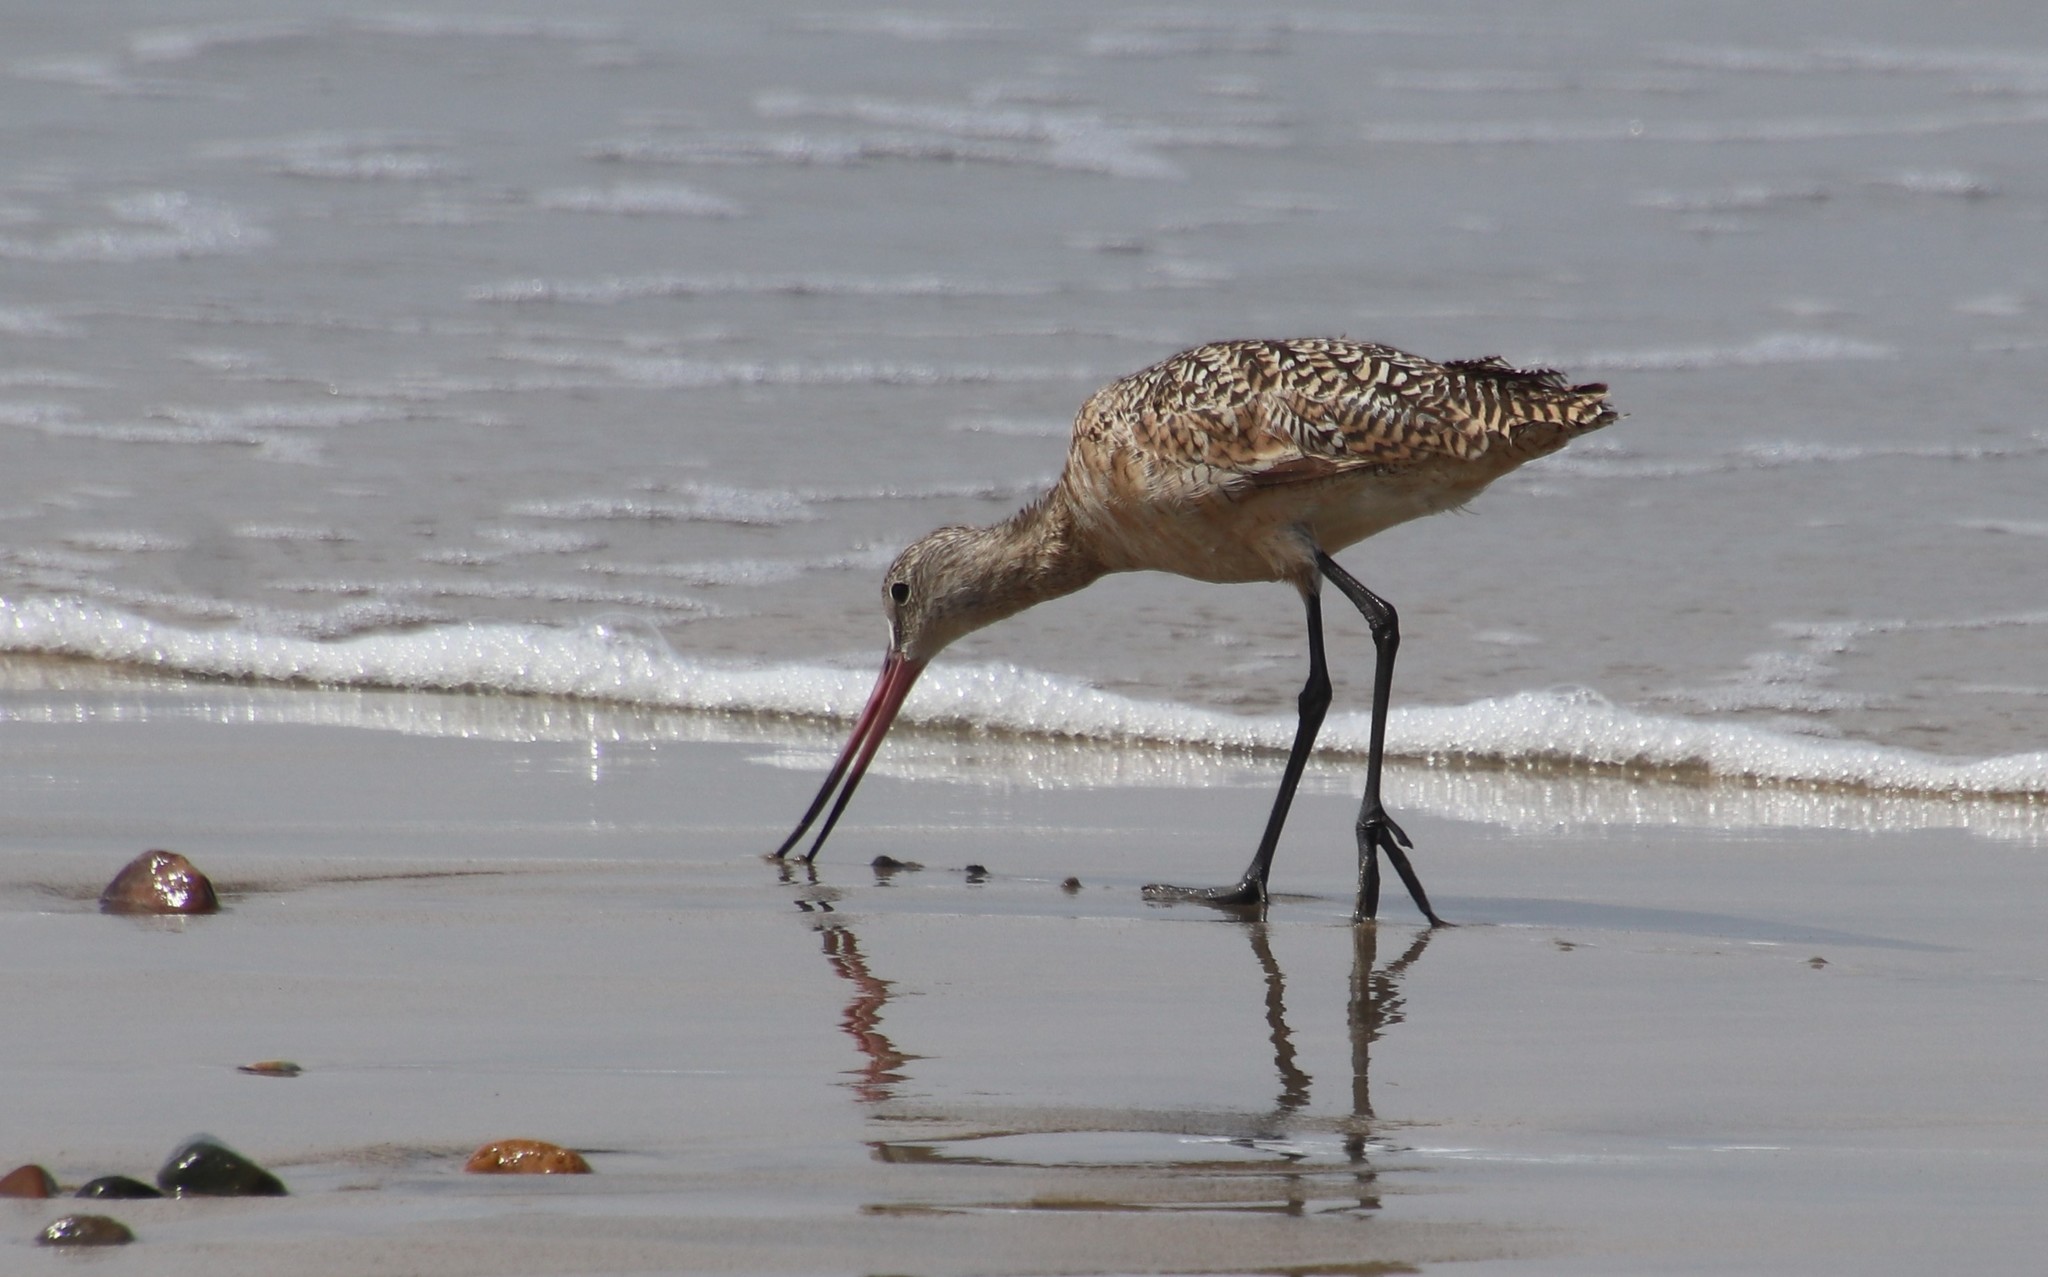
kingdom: Animalia
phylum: Chordata
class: Aves
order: Charadriiformes
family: Scolopacidae
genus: Limosa
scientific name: Limosa fedoa
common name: Marbled godwit
